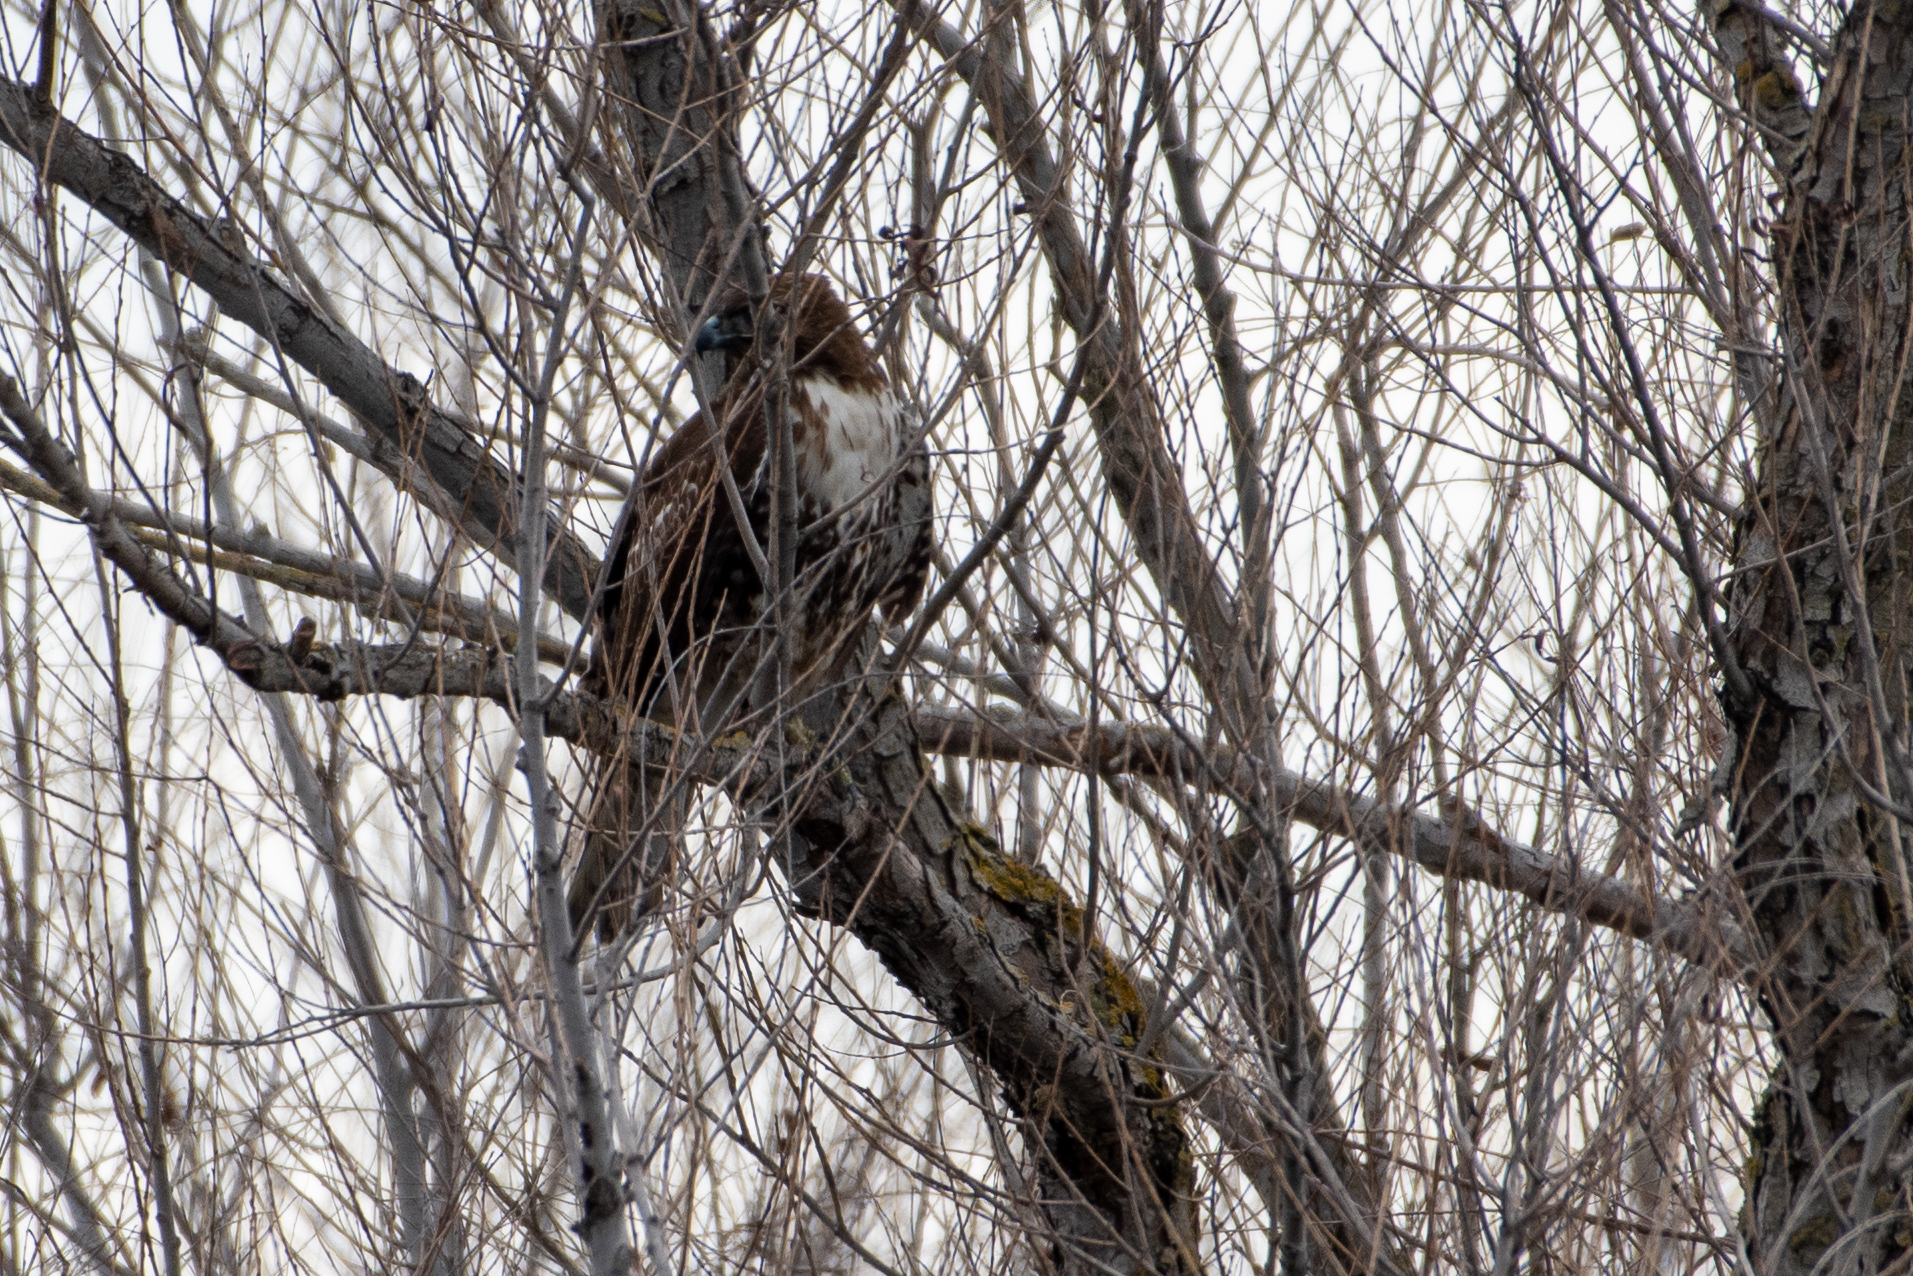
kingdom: Animalia
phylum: Chordata
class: Aves
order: Accipitriformes
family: Accipitridae
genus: Buteo
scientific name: Buteo jamaicensis
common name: Red-tailed hawk
